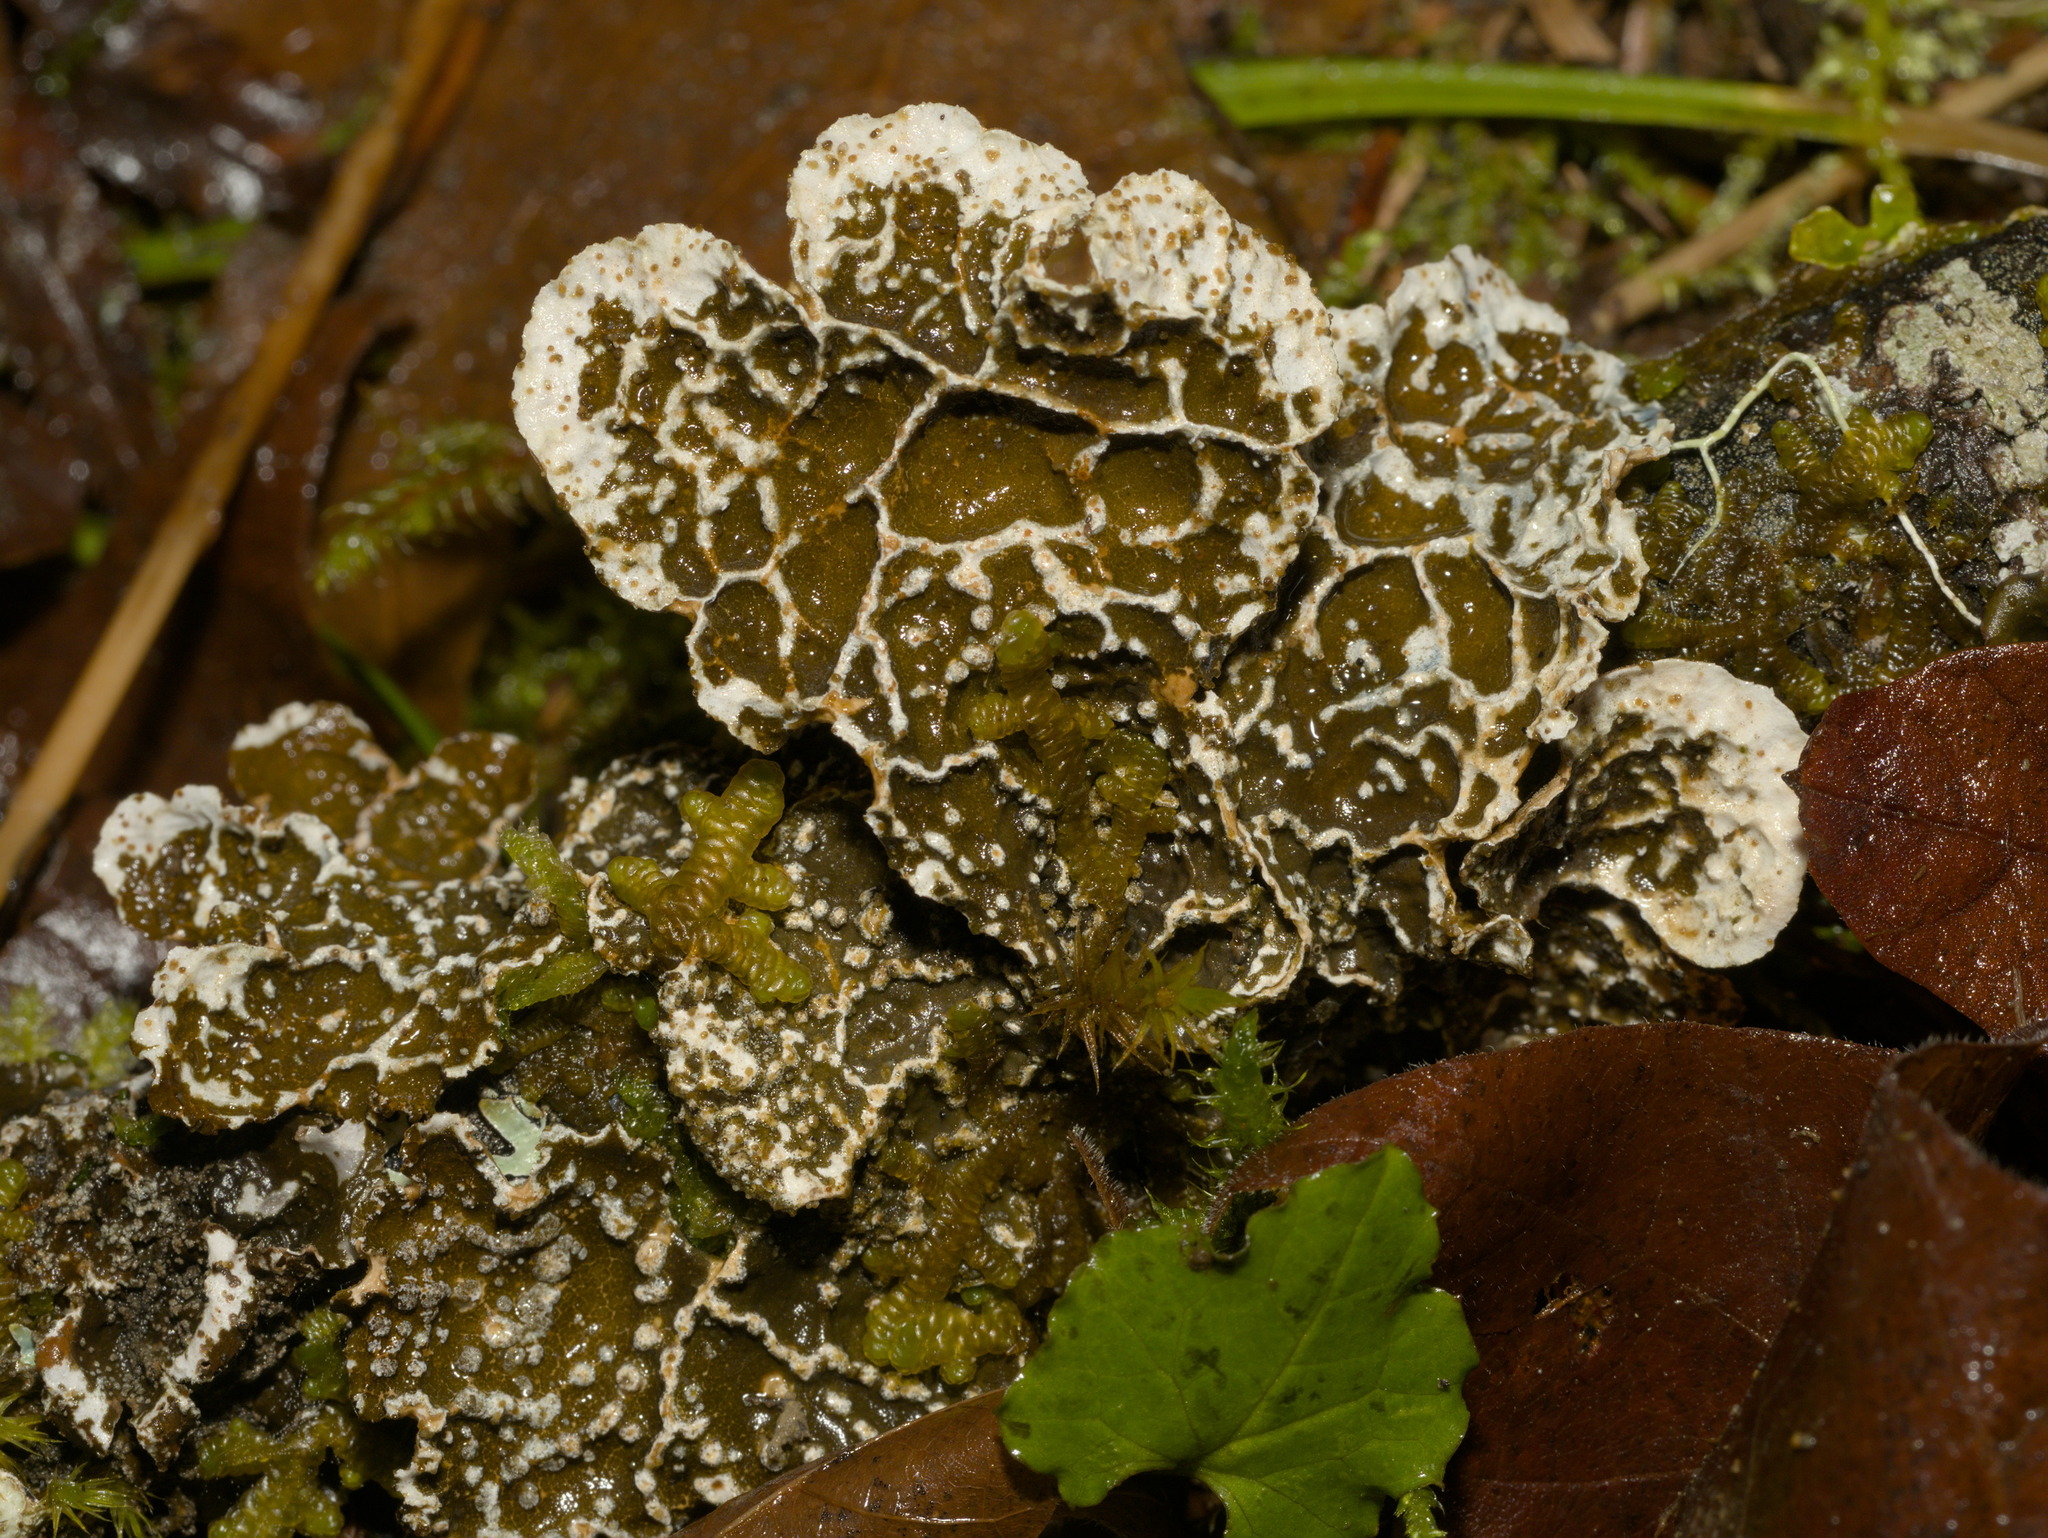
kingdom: Fungi
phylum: Ascomycota
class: Lecanoromycetes
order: Peltigerales
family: Lobariaceae
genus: Lobaria
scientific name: Lobaria anomala
